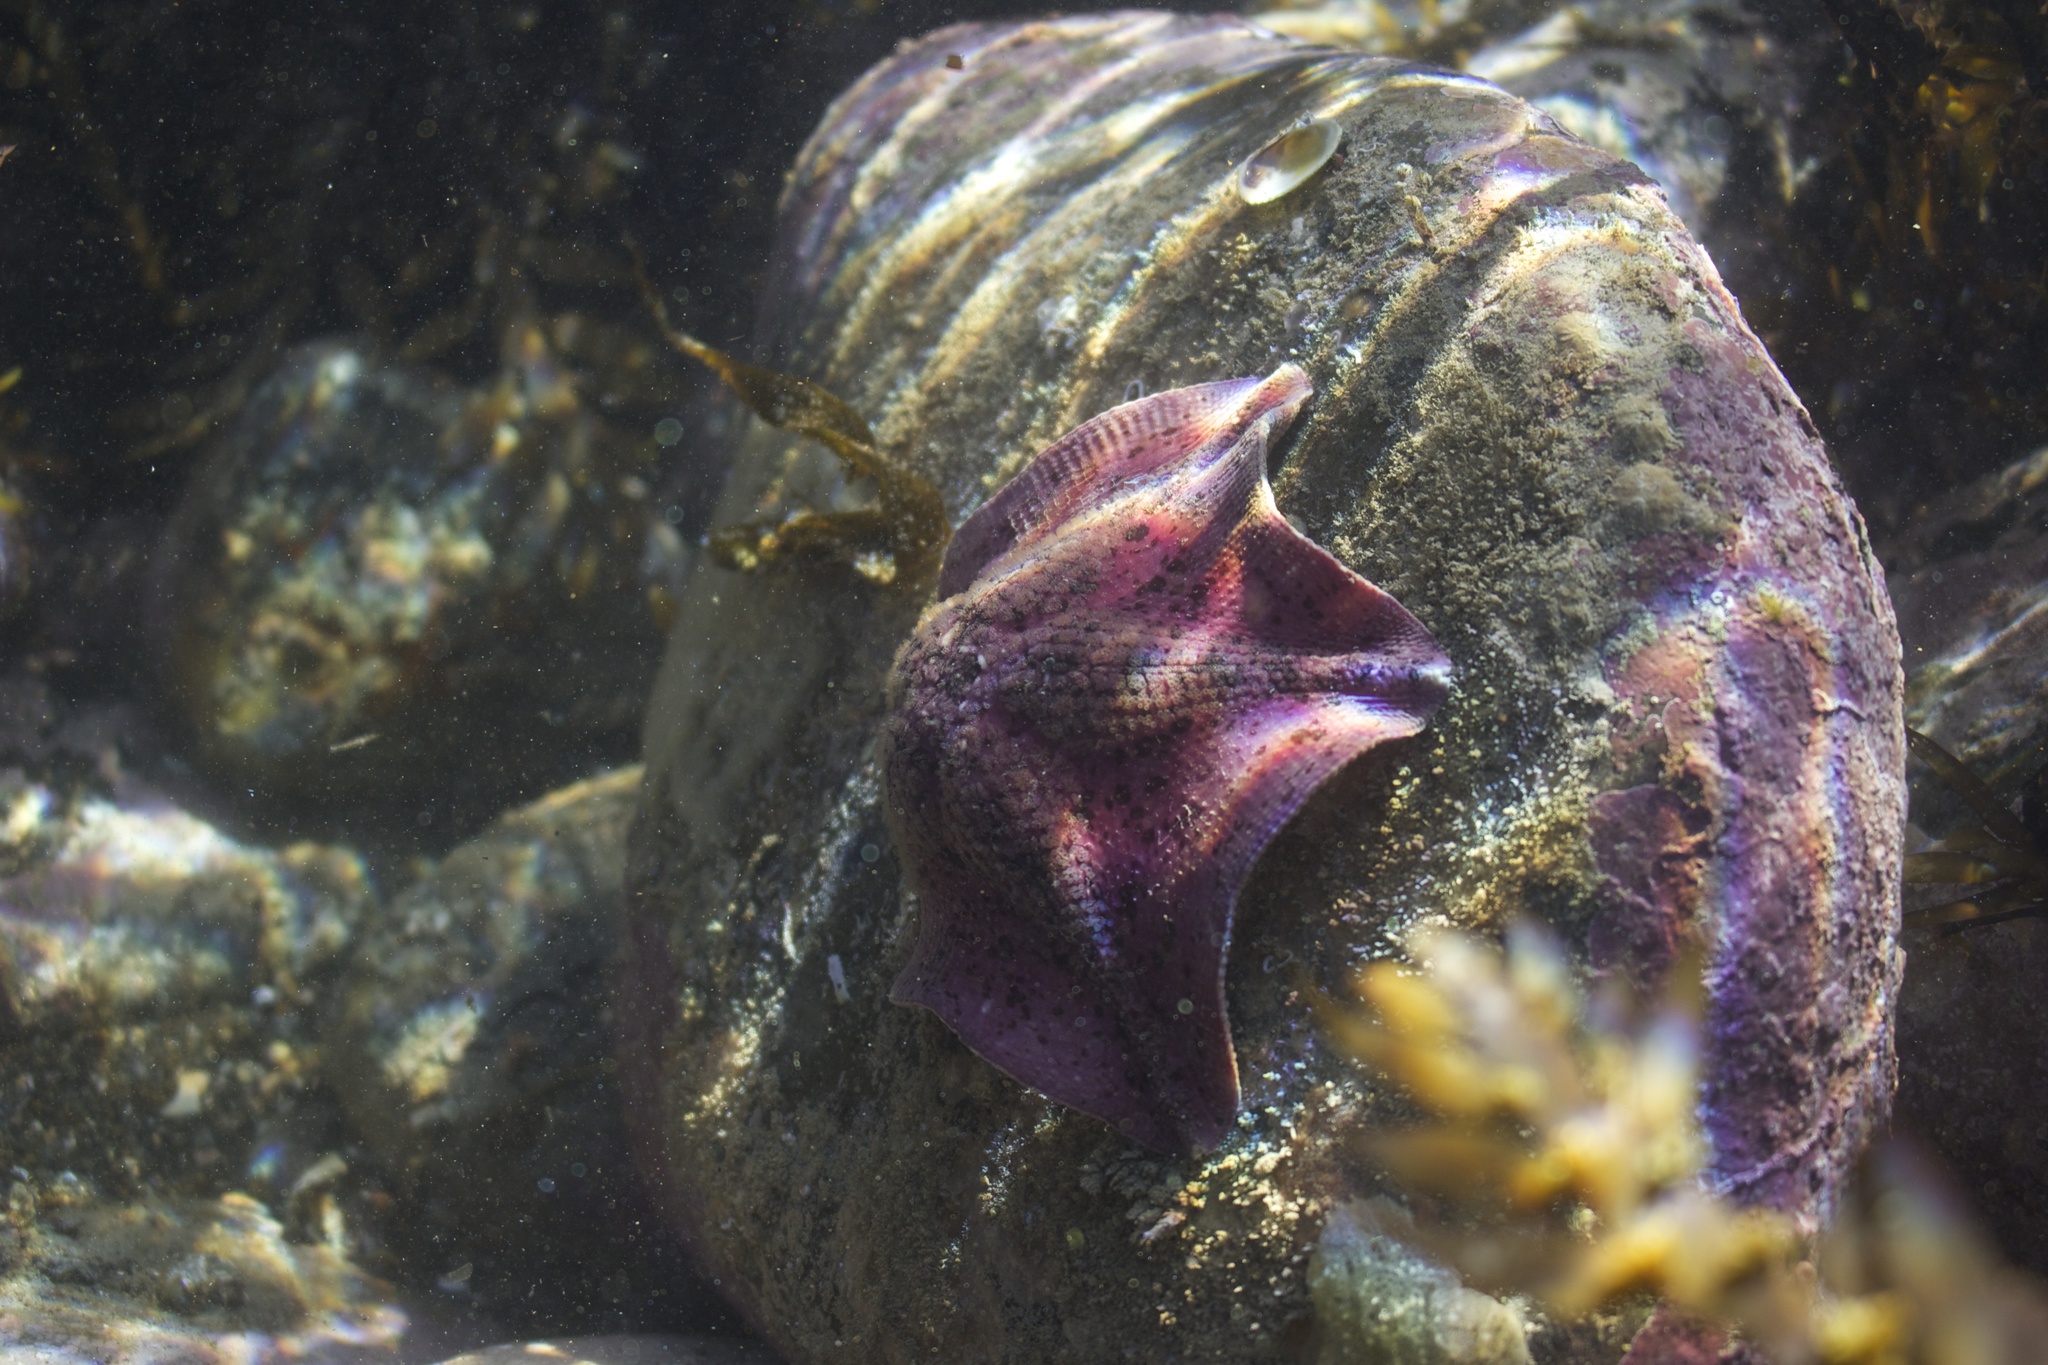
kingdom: Animalia
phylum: Echinodermata
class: Asteroidea
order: Valvatida
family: Asterinidae
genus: Stegnaster
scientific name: Stegnaster inflatus
